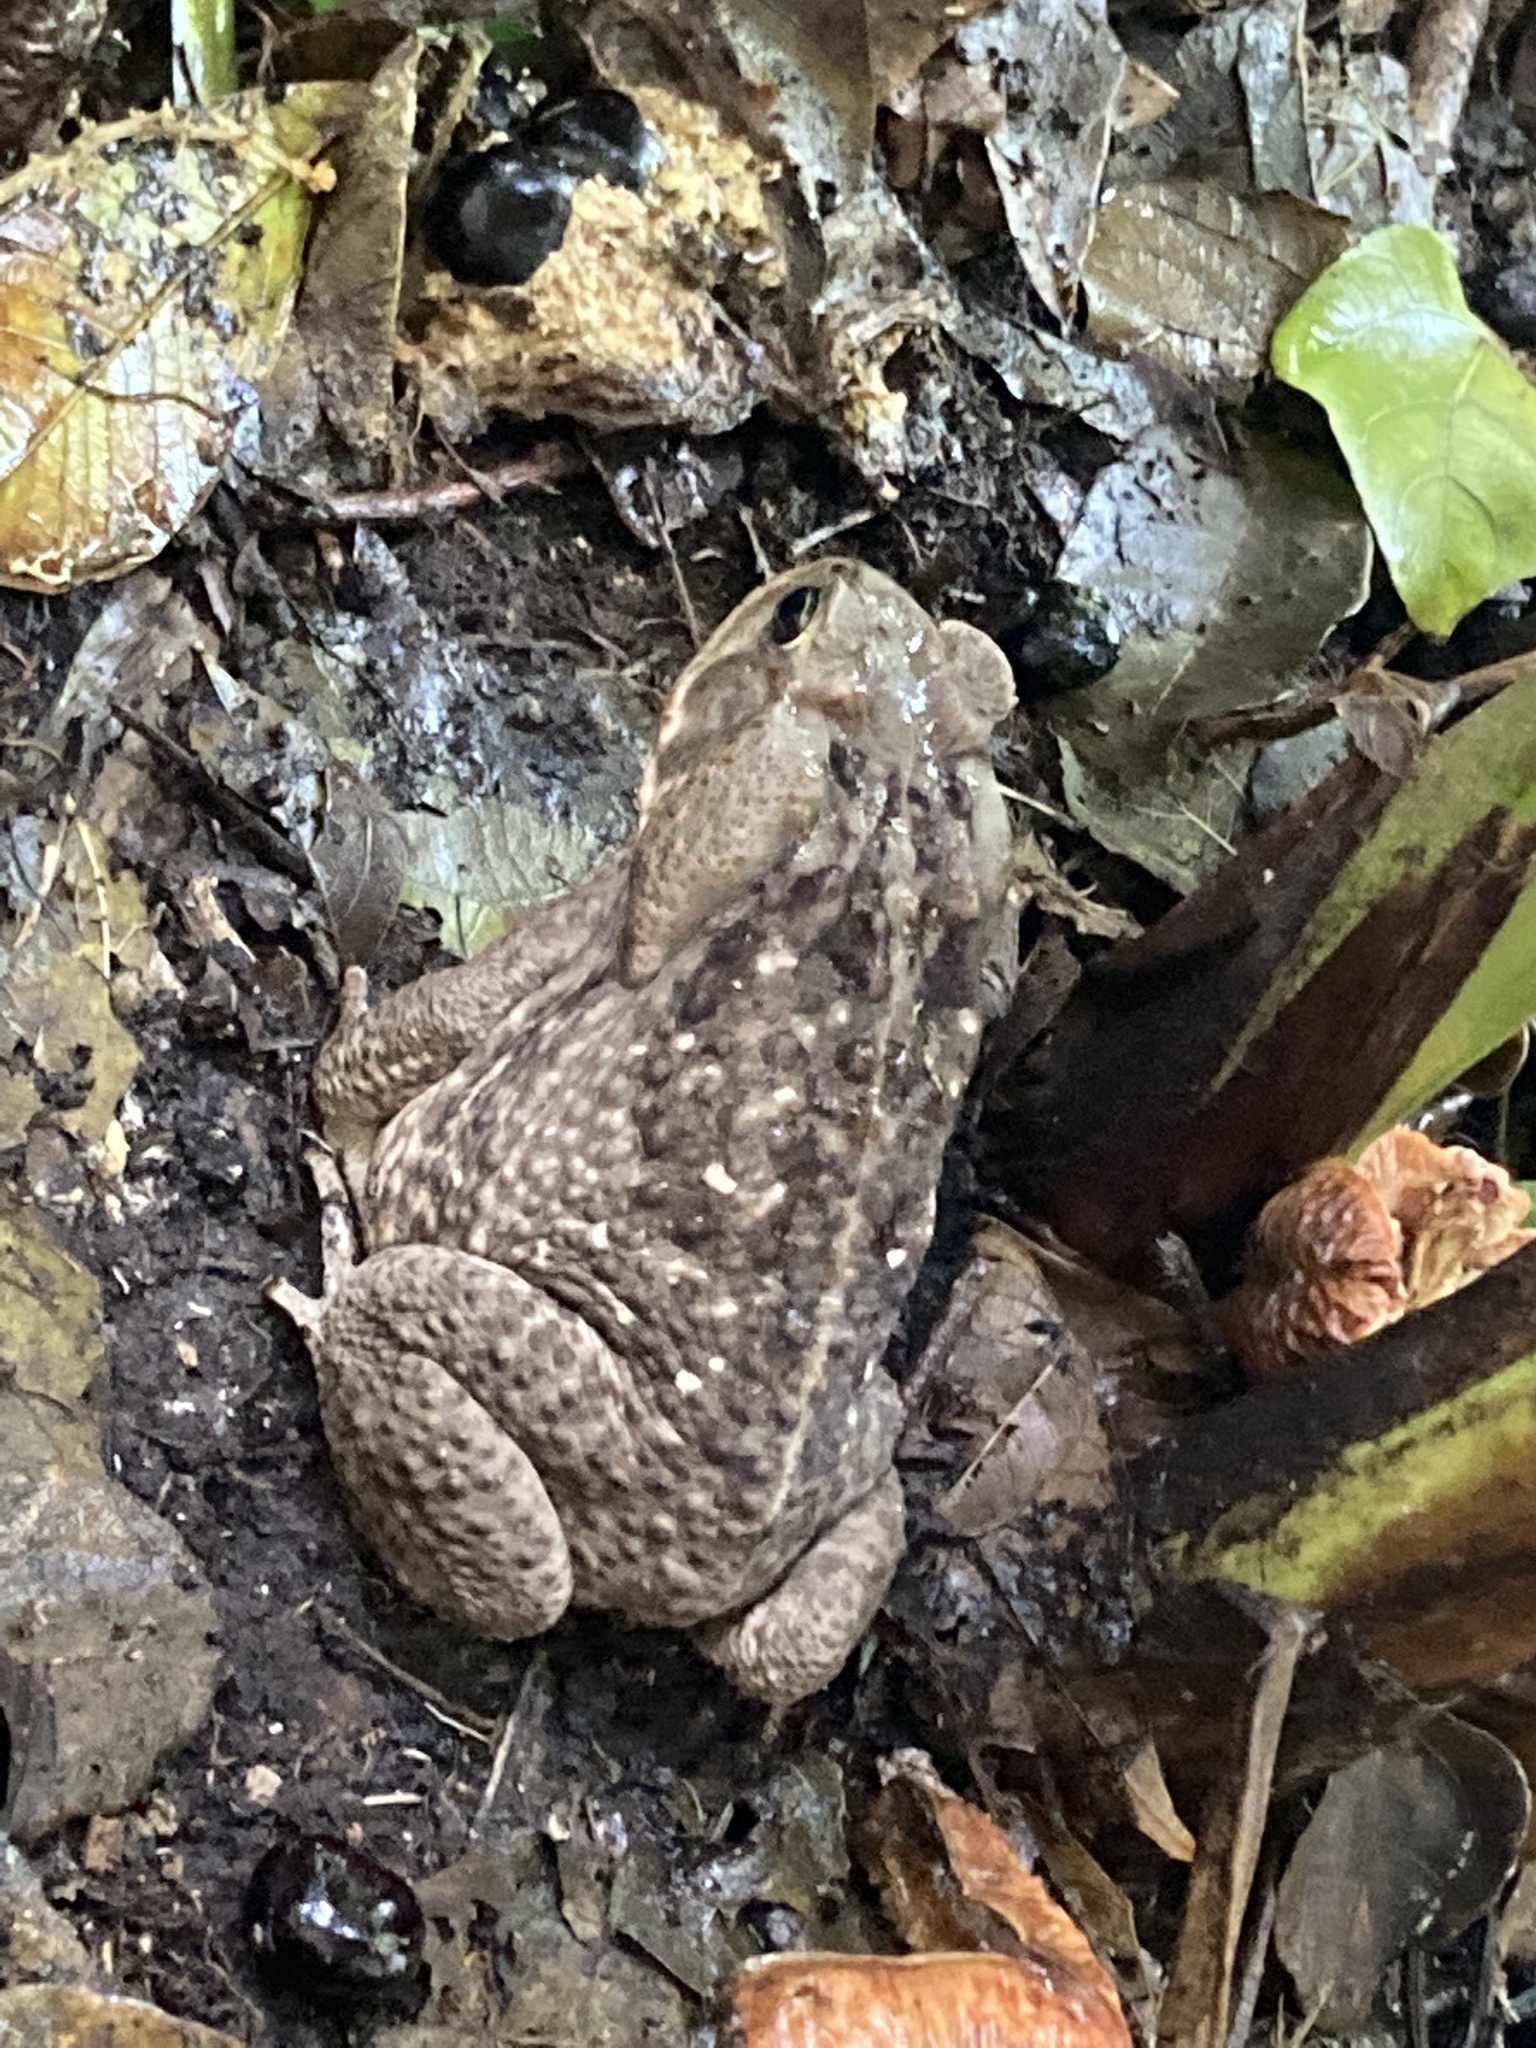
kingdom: Animalia
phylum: Chordata
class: Amphibia
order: Anura
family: Bufonidae
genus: Rhinella
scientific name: Rhinella marina
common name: Cane toad
